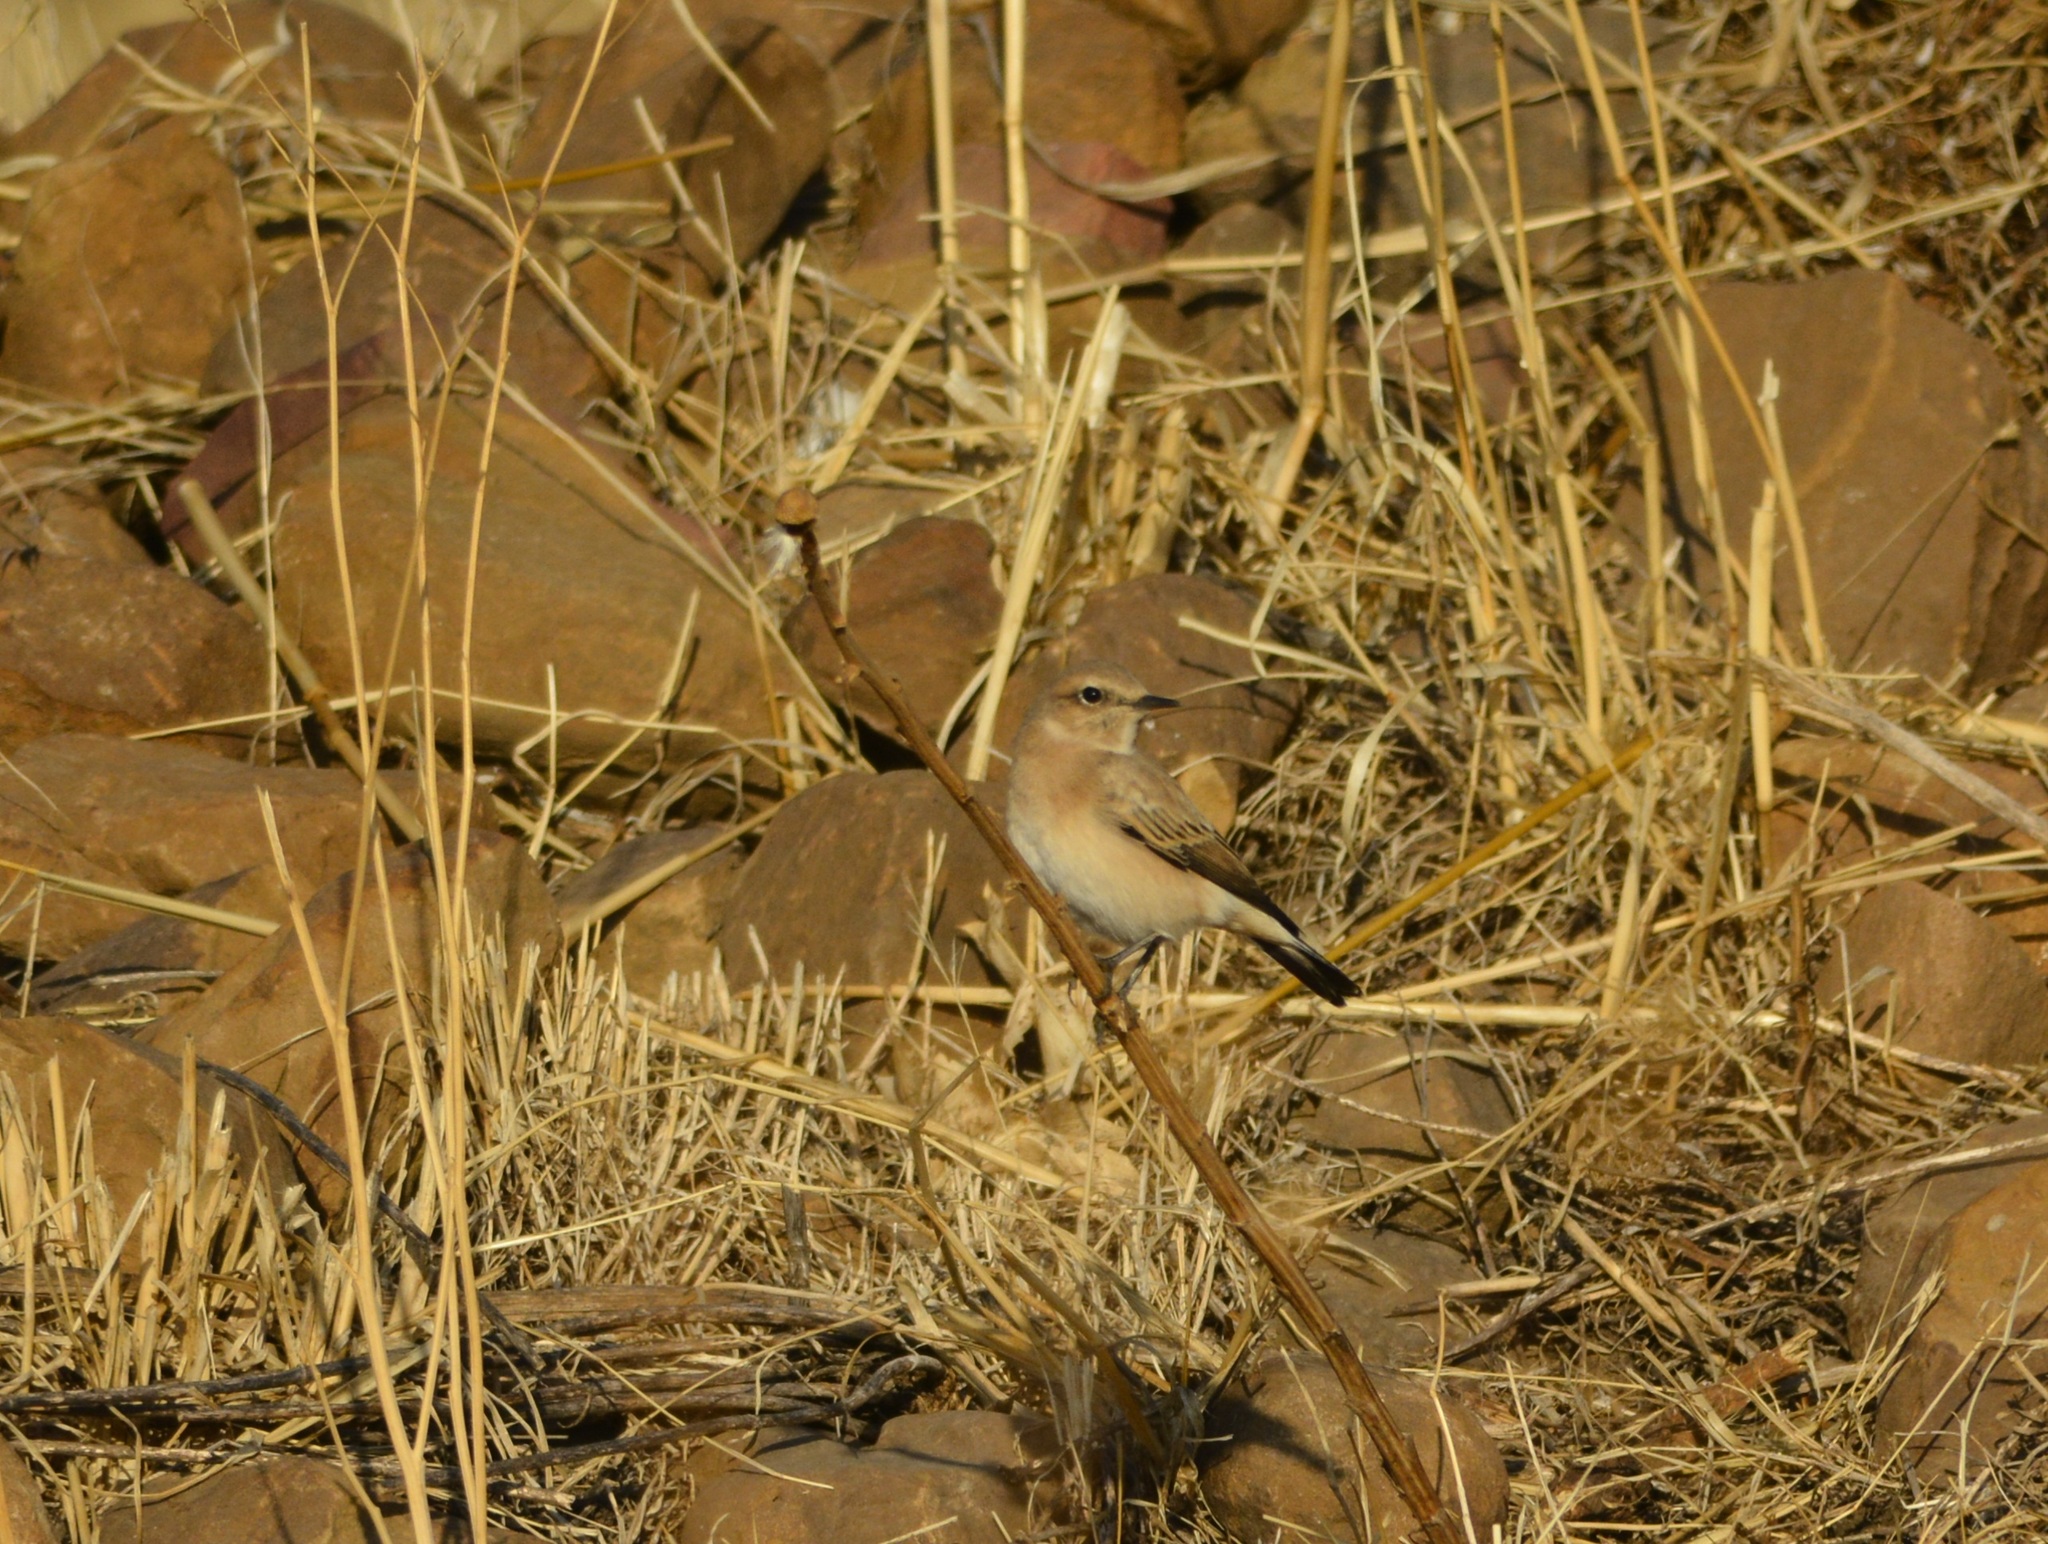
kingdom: Animalia
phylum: Chordata
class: Aves
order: Passeriformes
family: Muscicapidae
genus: Oenanthe
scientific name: Oenanthe hispanica
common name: Black-eared wheatear
